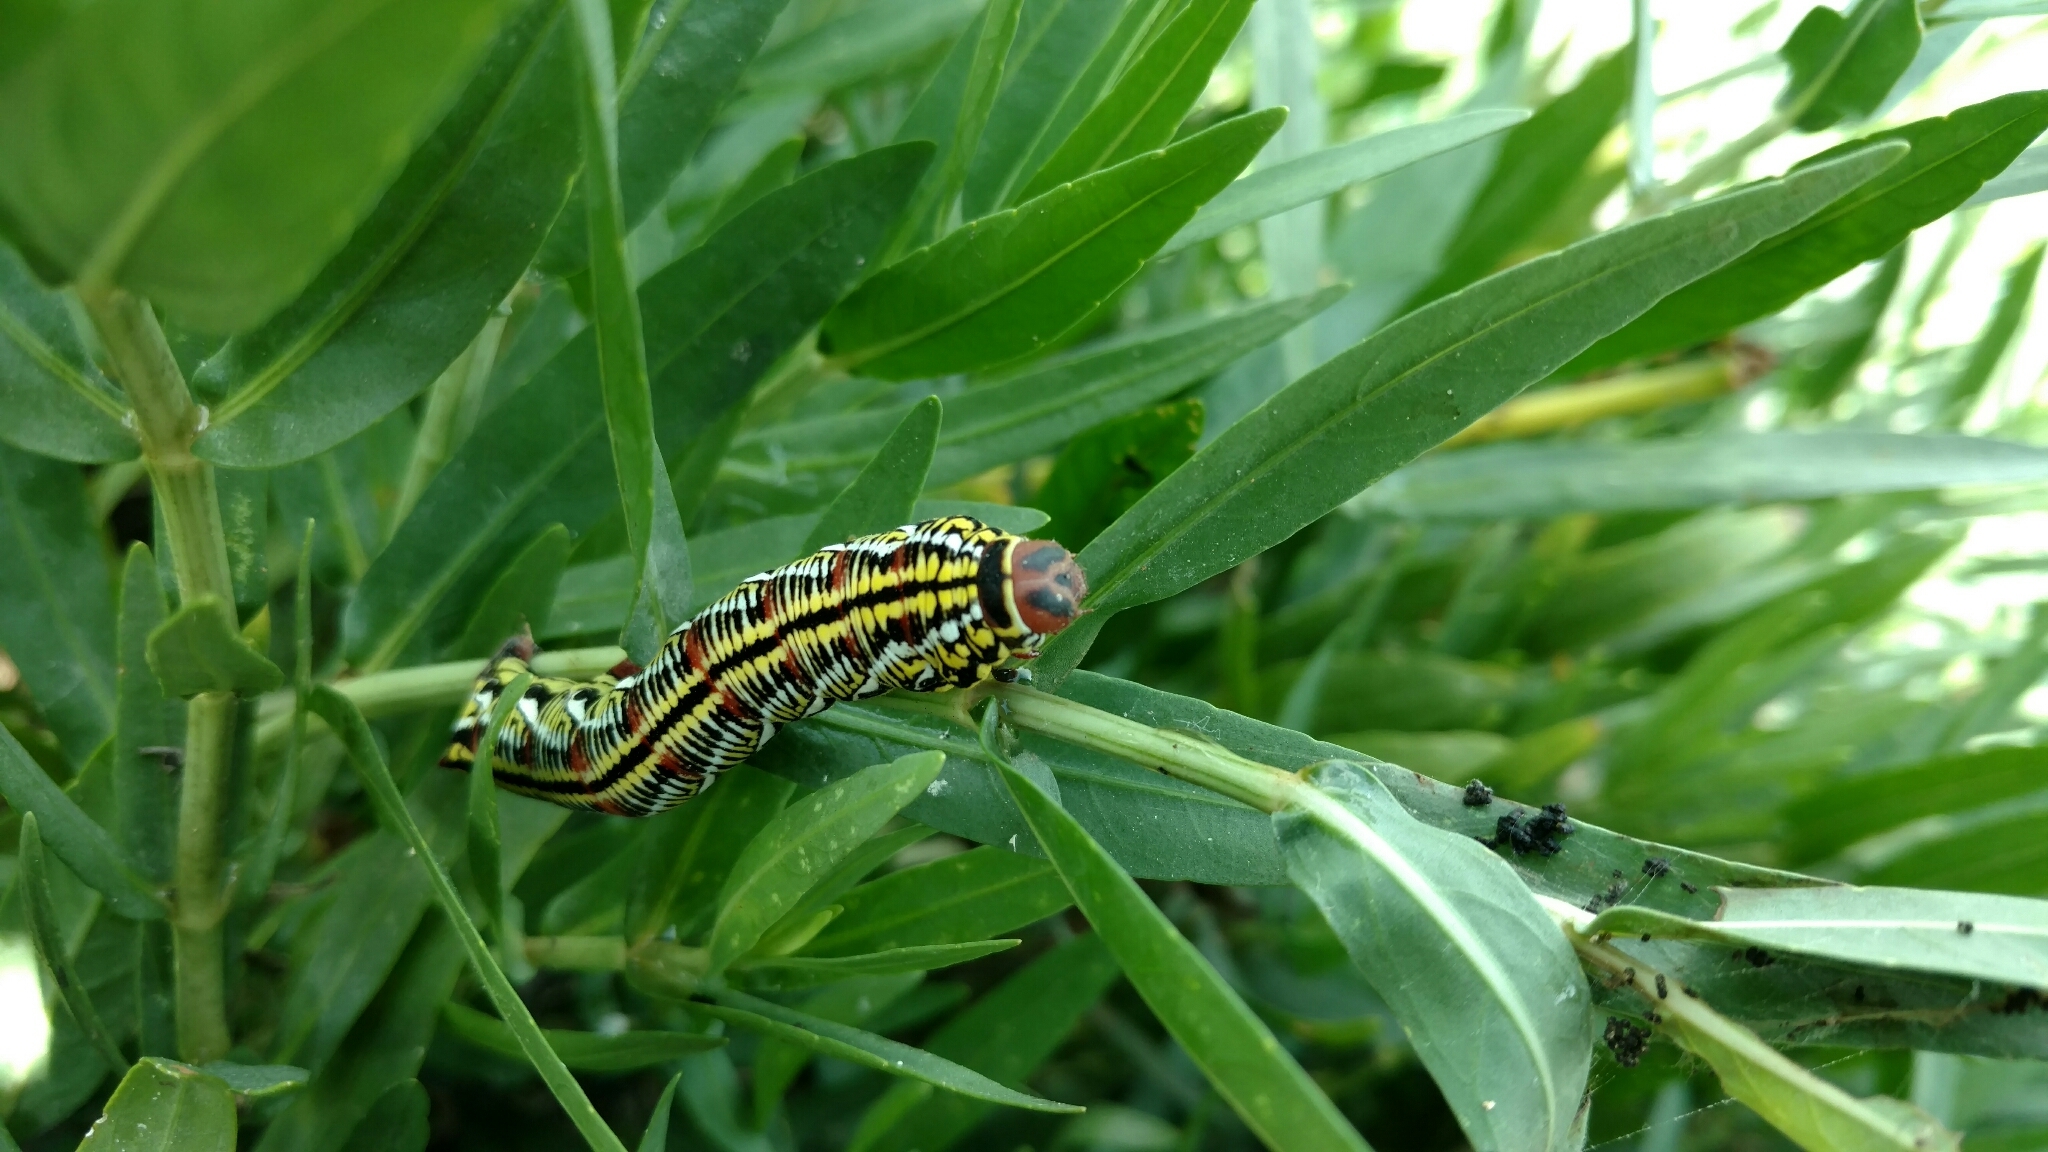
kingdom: Animalia
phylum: Arthropoda
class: Insecta
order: Lepidoptera
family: Sphingidae
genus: Eumorpha
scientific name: Eumorpha fasciatus
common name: Banded sphinx
